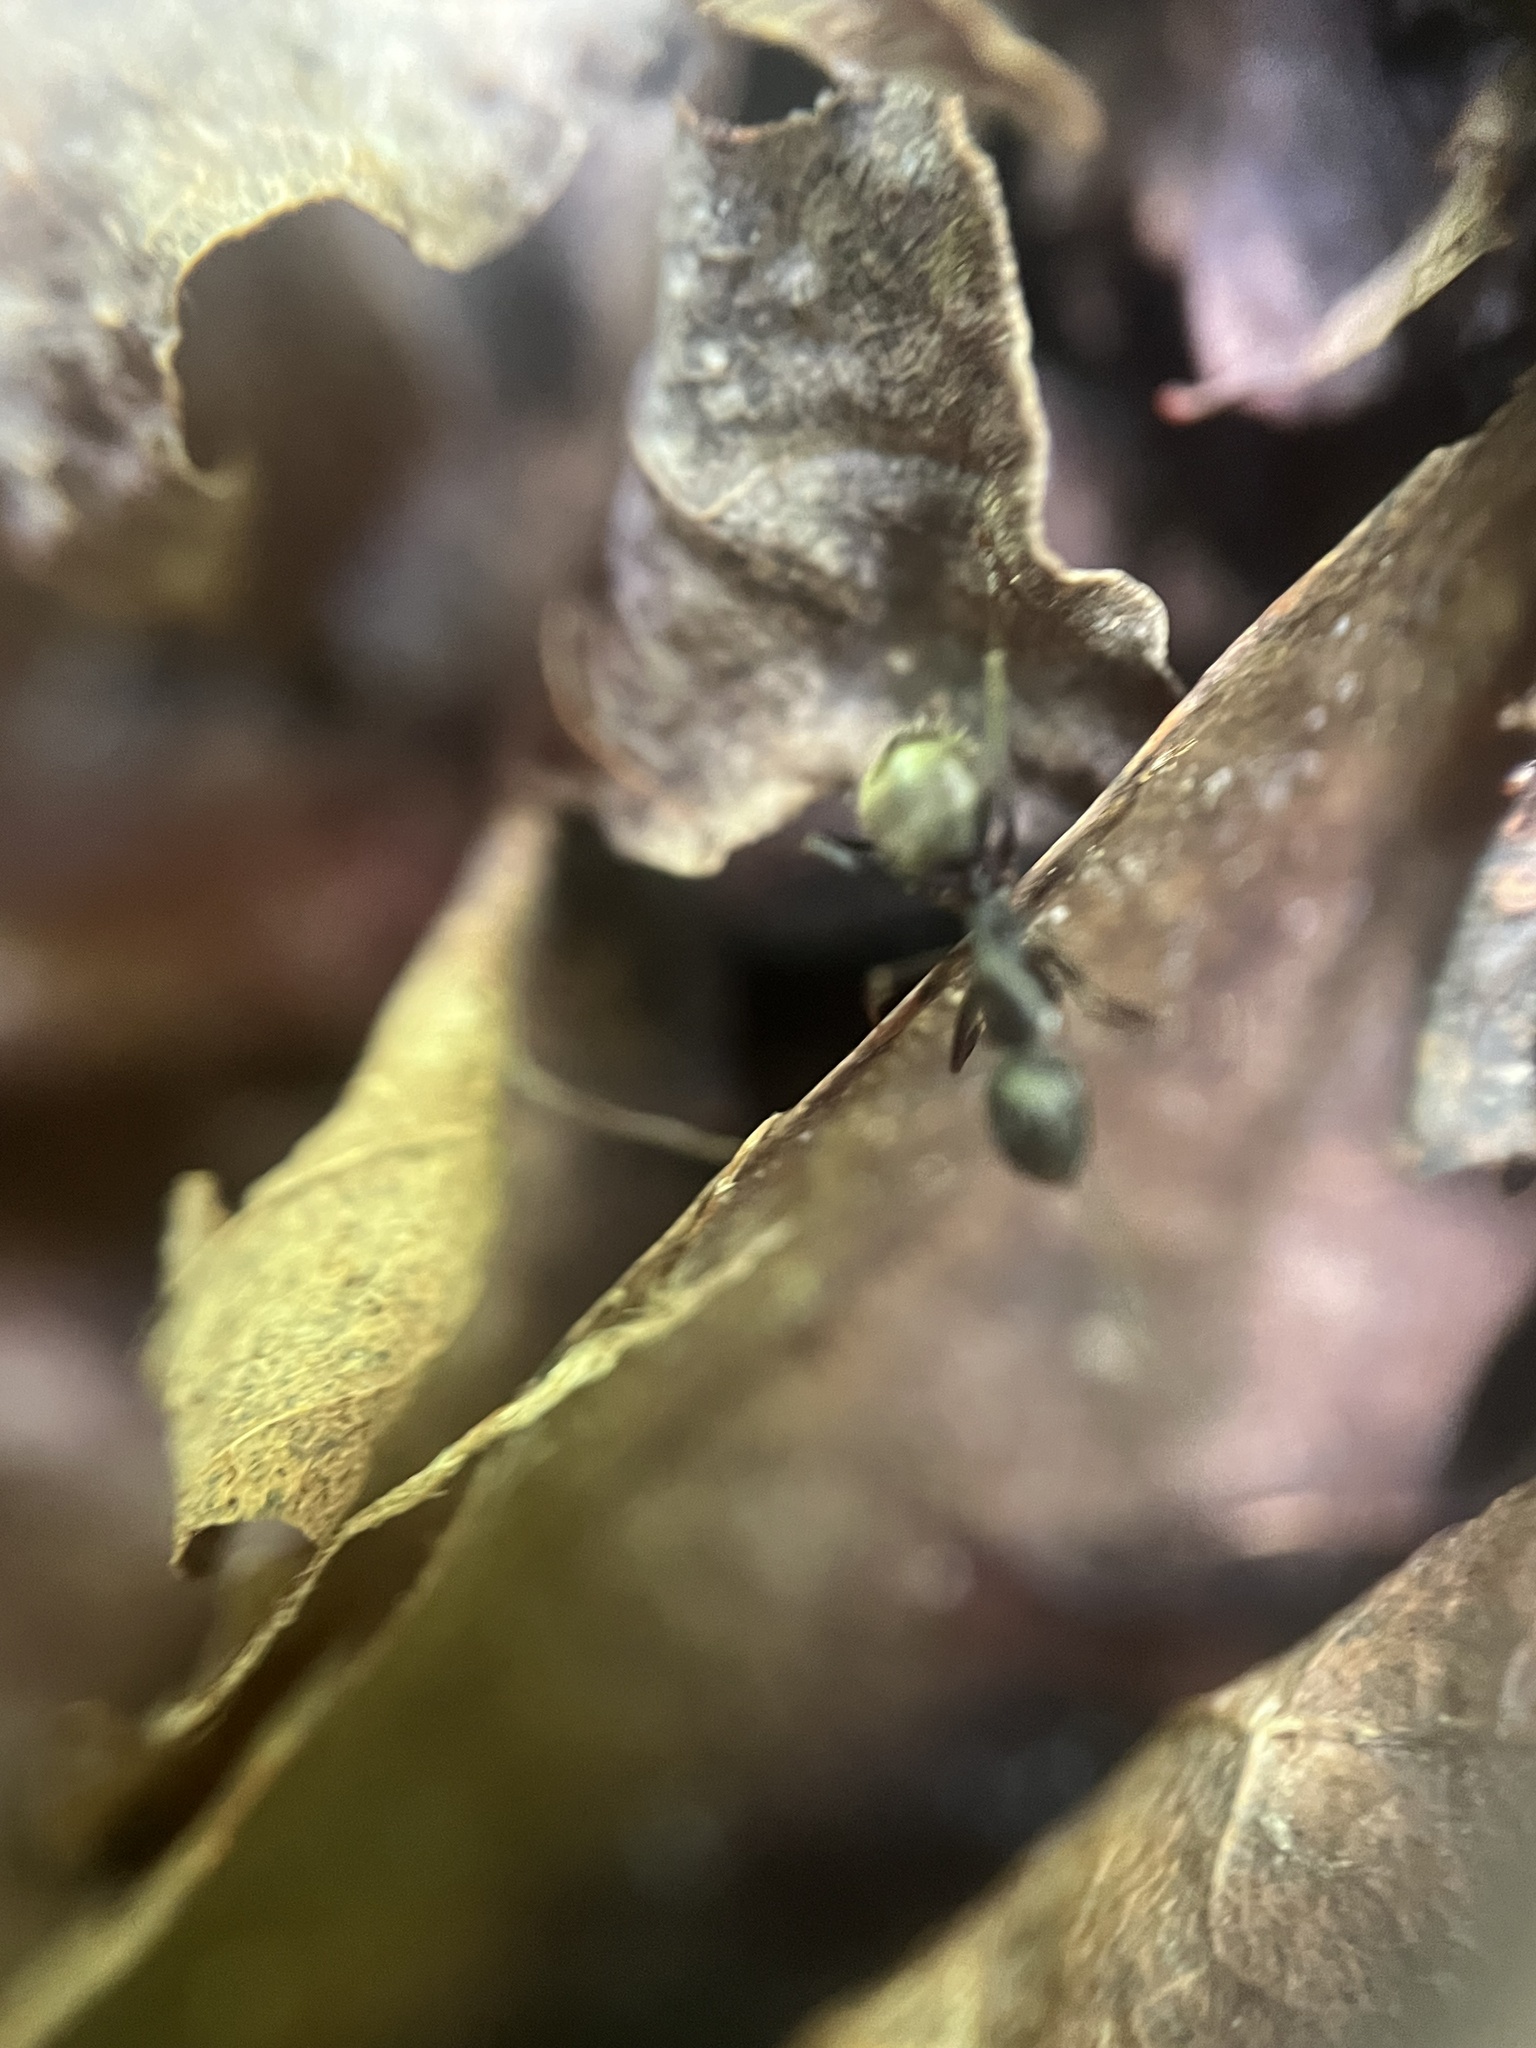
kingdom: Animalia
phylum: Arthropoda
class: Insecta
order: Hymenoptera
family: Formicidae
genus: Camponotus
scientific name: Camponotus pennsylvanicus
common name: Black carpenter ant
